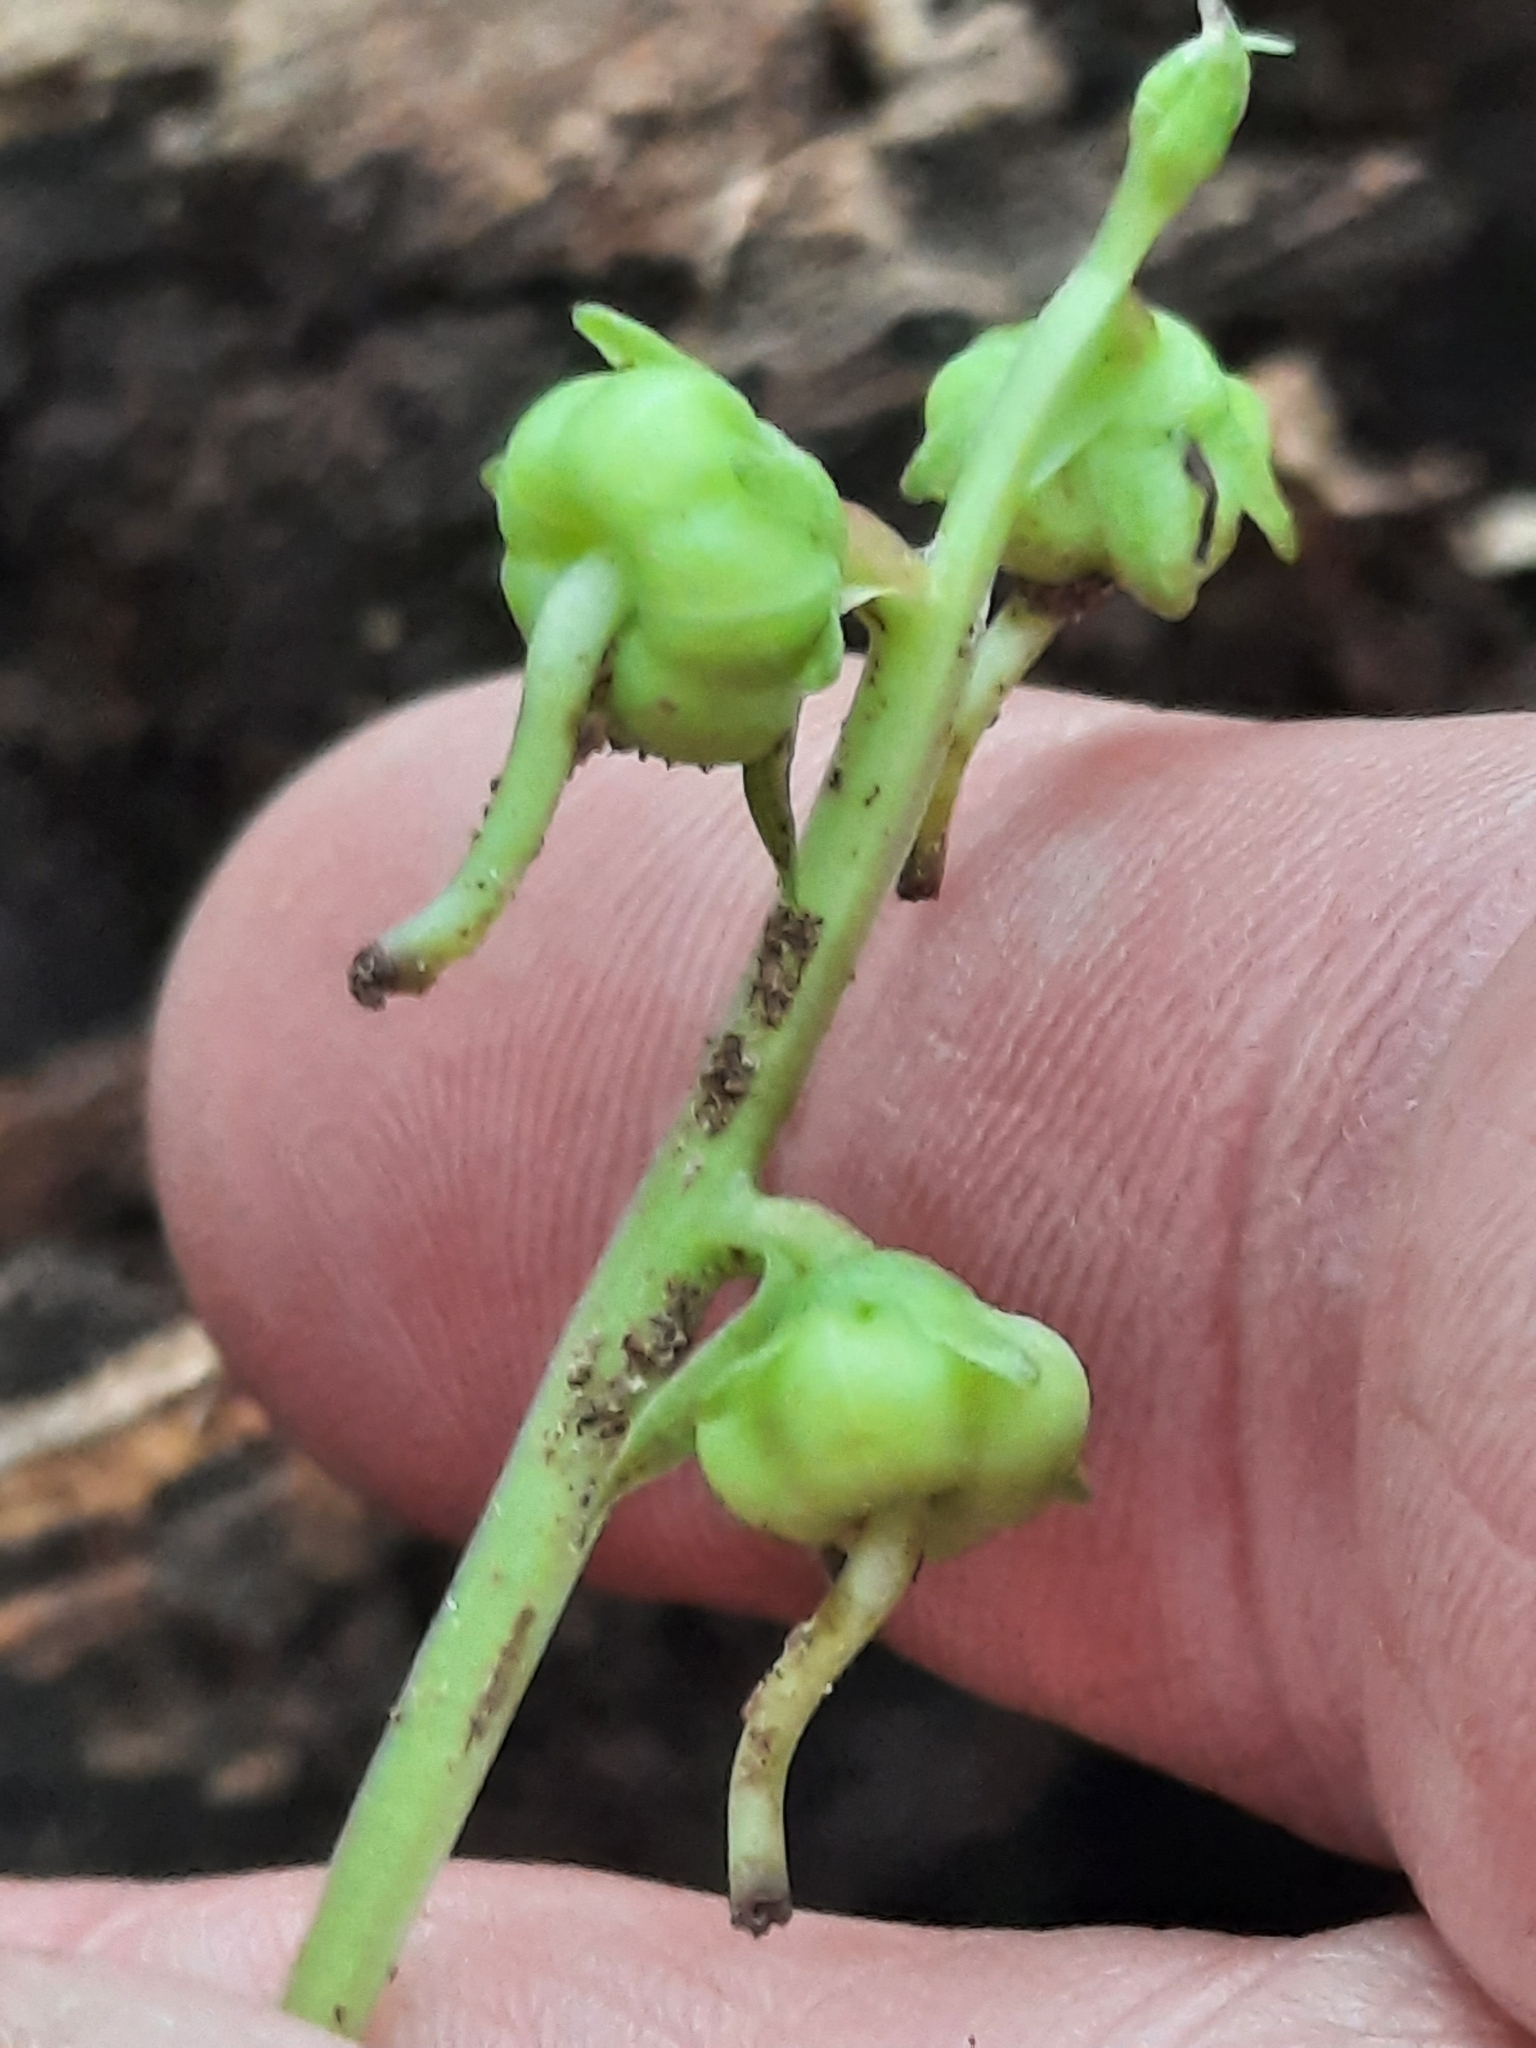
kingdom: Plantae
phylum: Tracheophyta
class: Magnoliopsida
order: Ericales
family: Ericaceae
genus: Pyrola
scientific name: Pyrola americana
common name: American wintergreen
